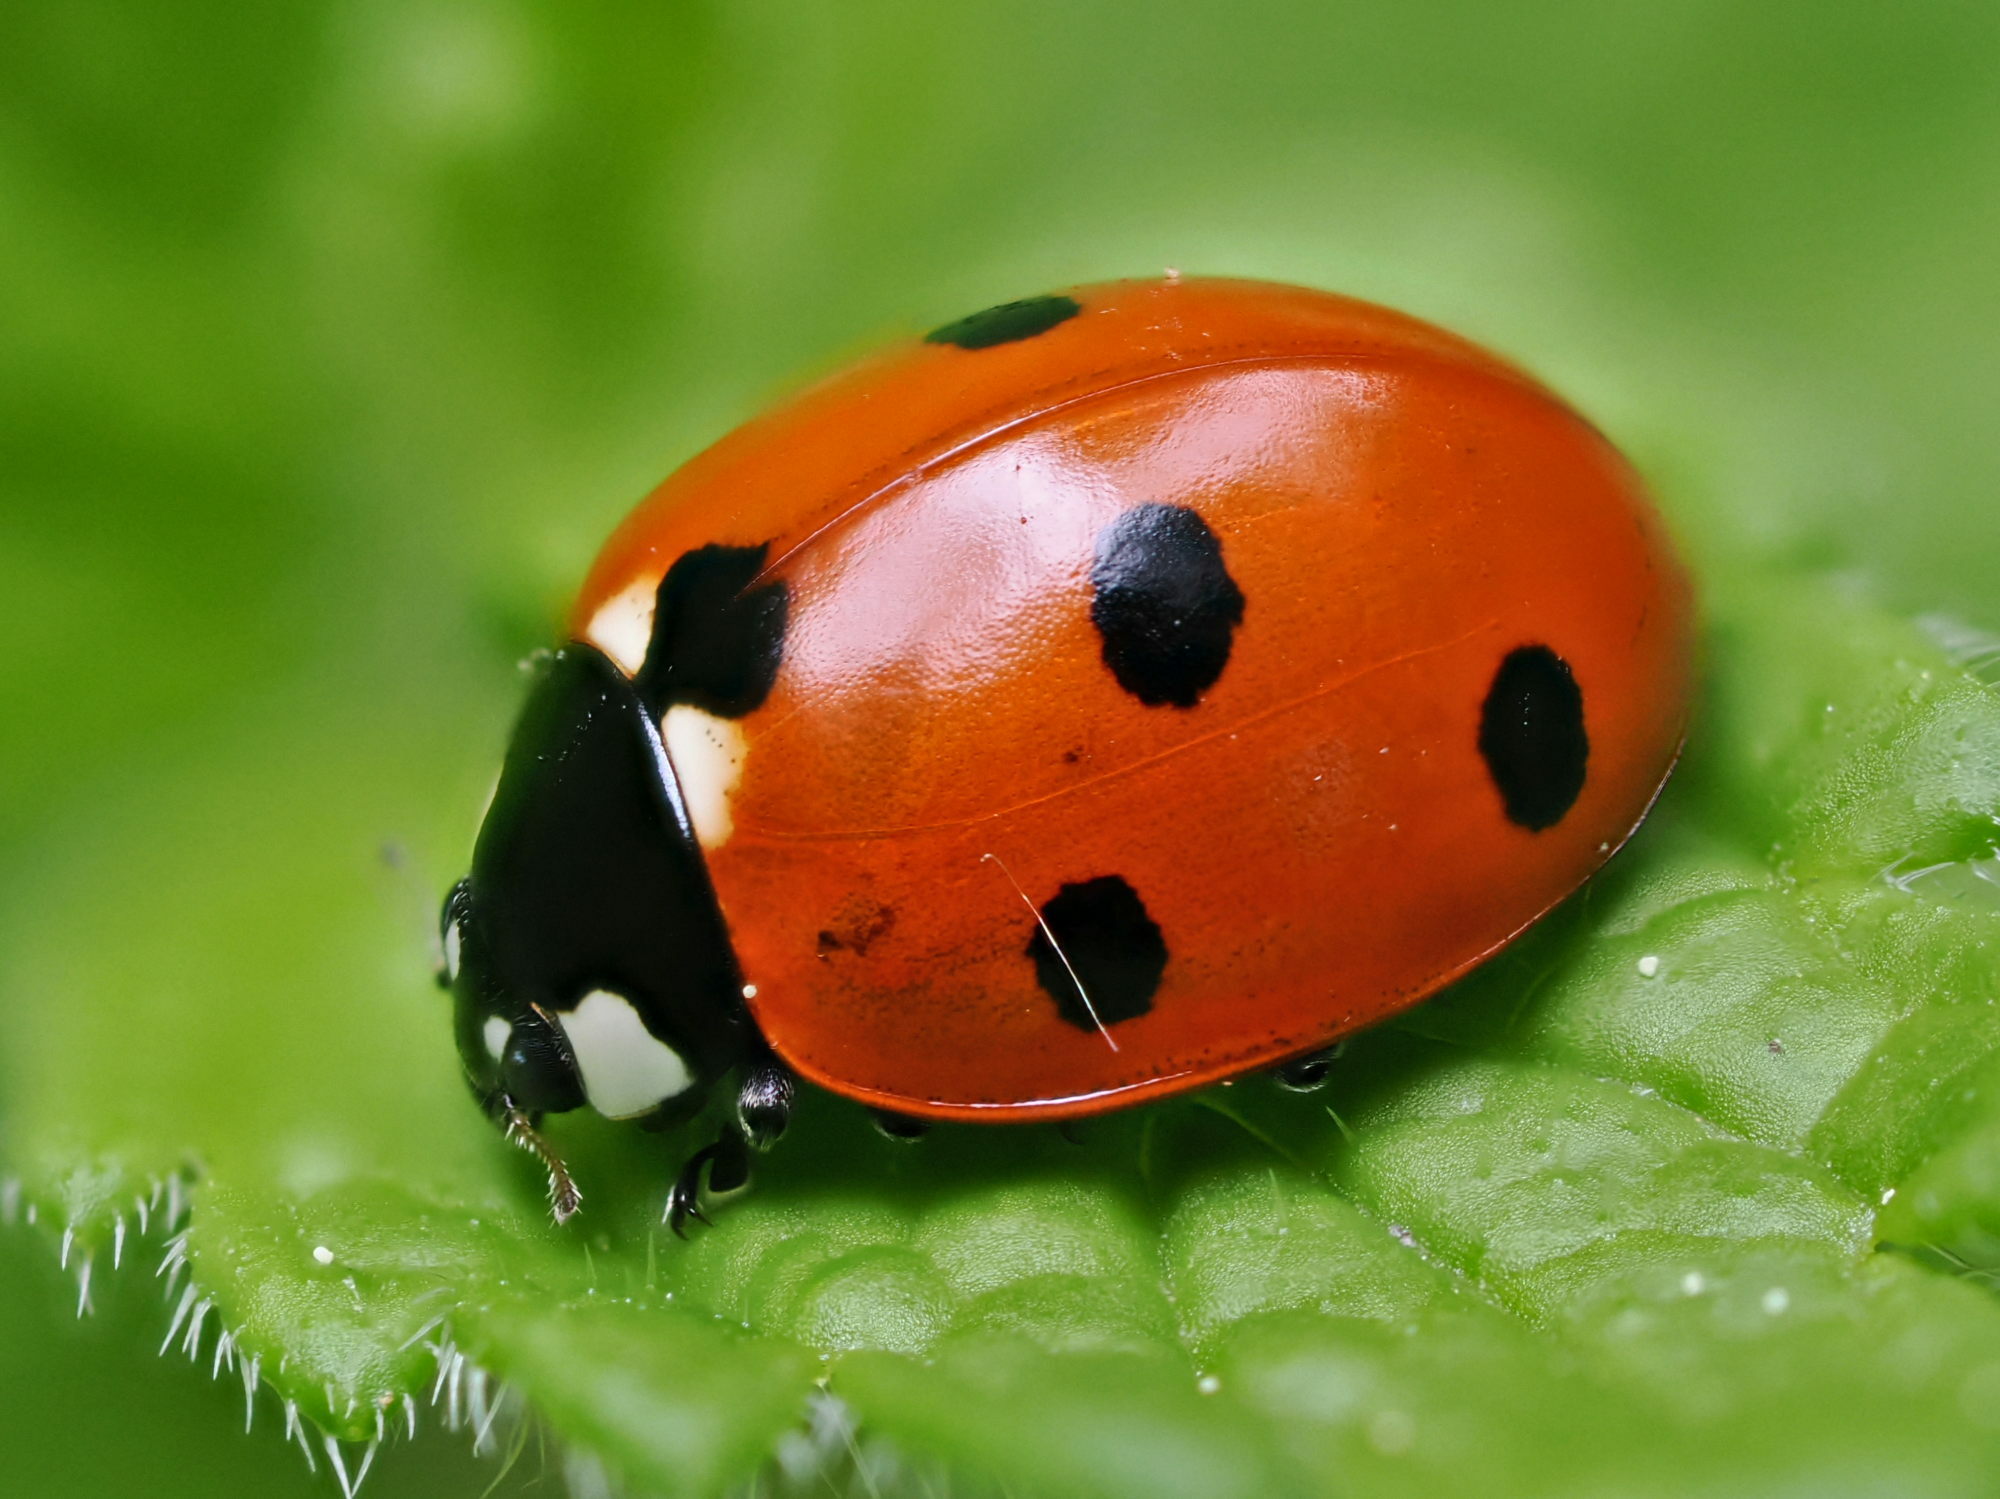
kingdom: Animalia
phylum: Arthropoda
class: Insecta
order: Coleoptera
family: Coccinellidae
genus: Coccinella
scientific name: Coccinella septempunctata
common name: Sevenspotted lady beetle
